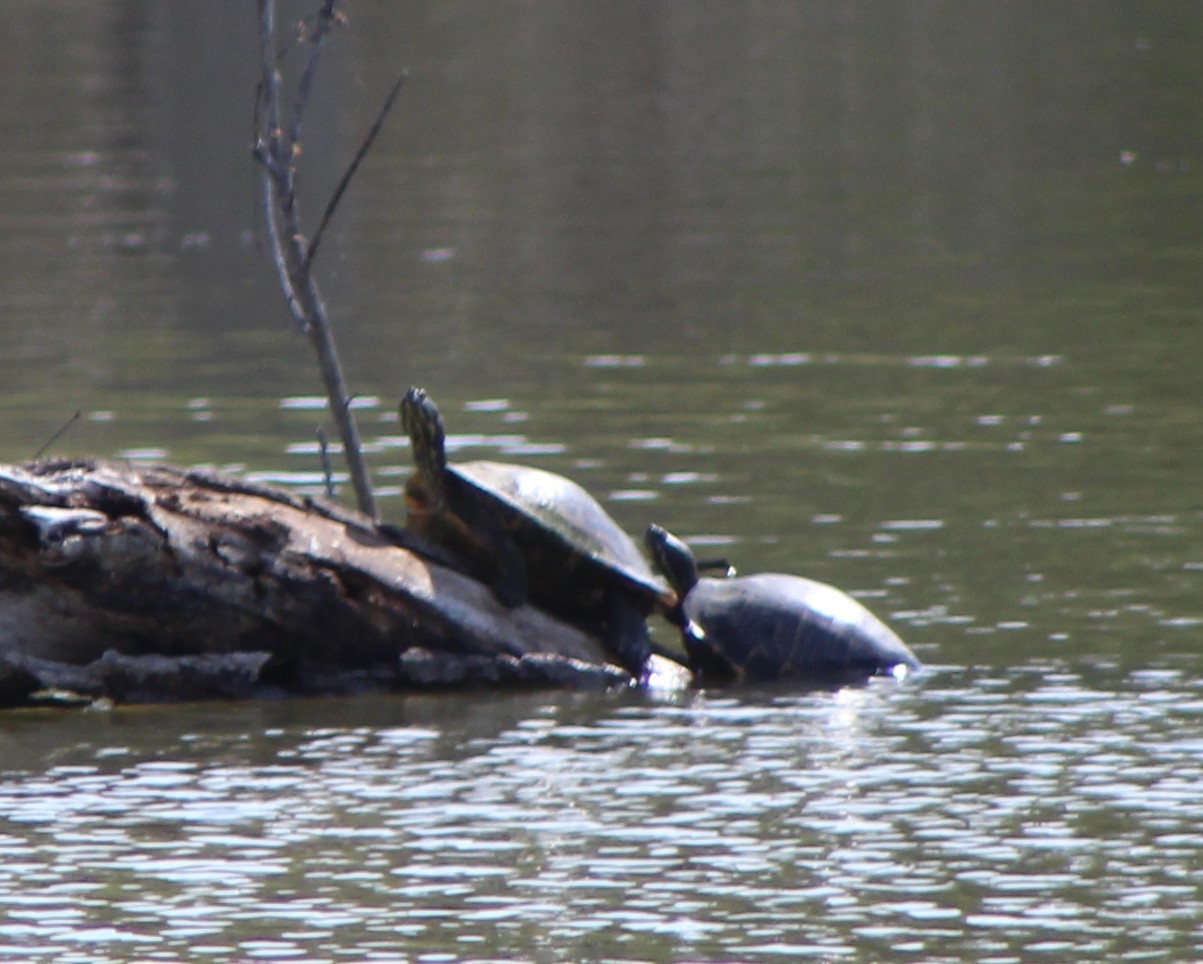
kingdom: Animalia
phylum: Chordata
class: Testudines
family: Emydidae
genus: Pseudemys
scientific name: Pseudemys concinna
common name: Eastern river cooter
